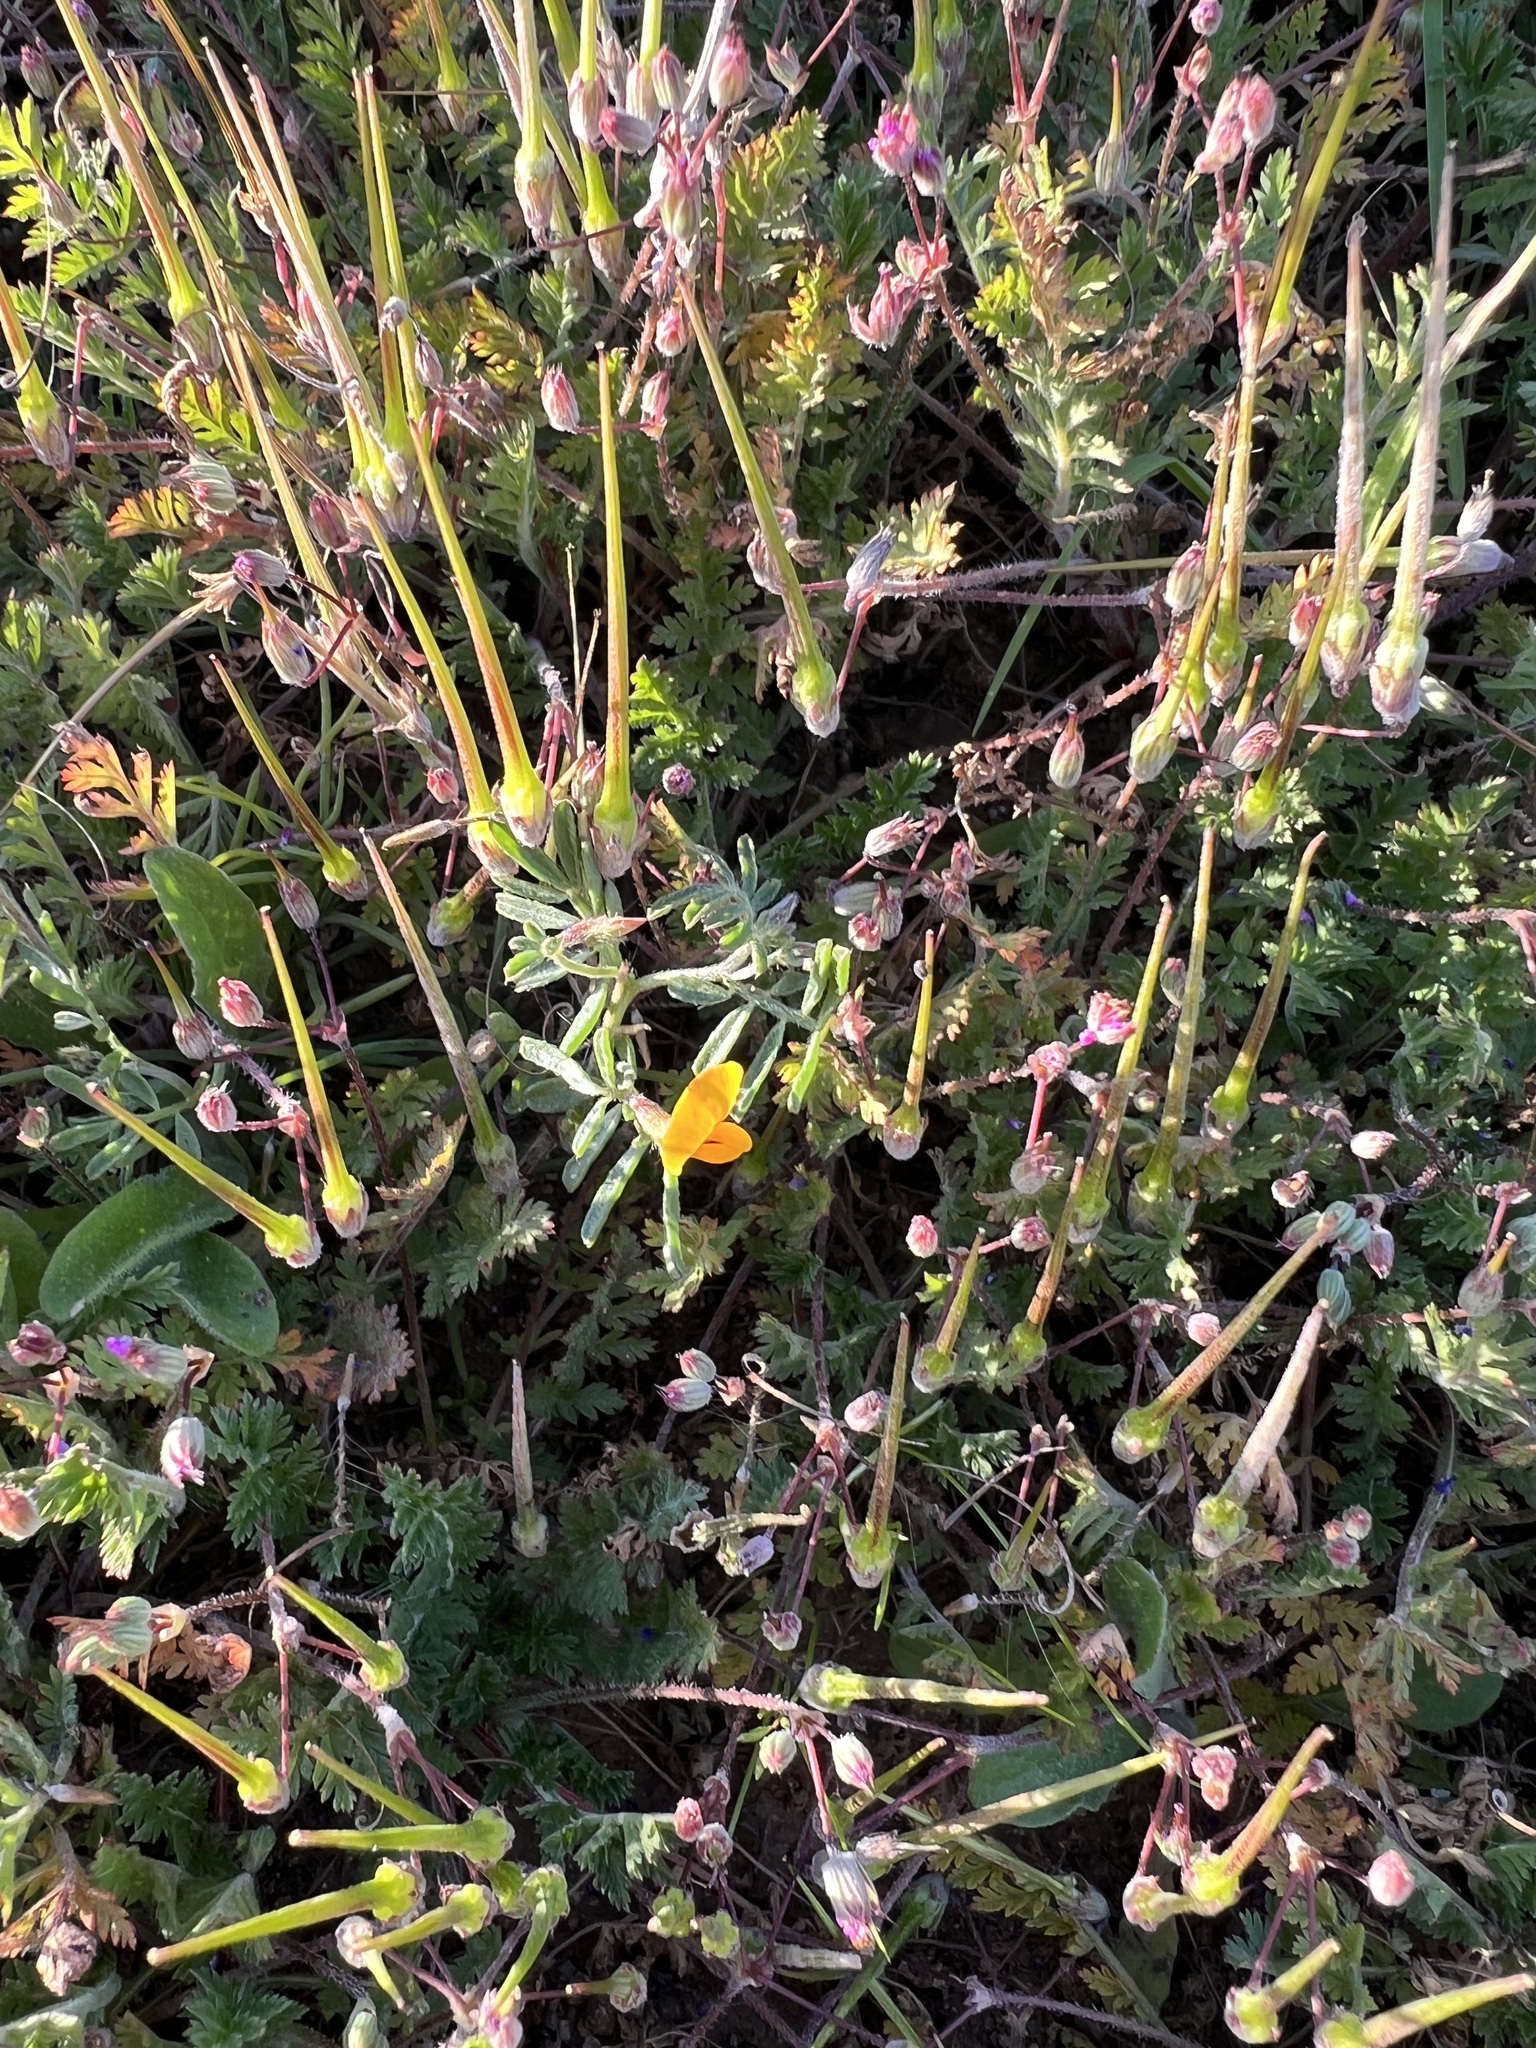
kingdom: Plantae
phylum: Tracheophyta
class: Magnoliopsida
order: Fabales
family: Fabaceae
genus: Acmispon
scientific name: Acmispon strigosus
